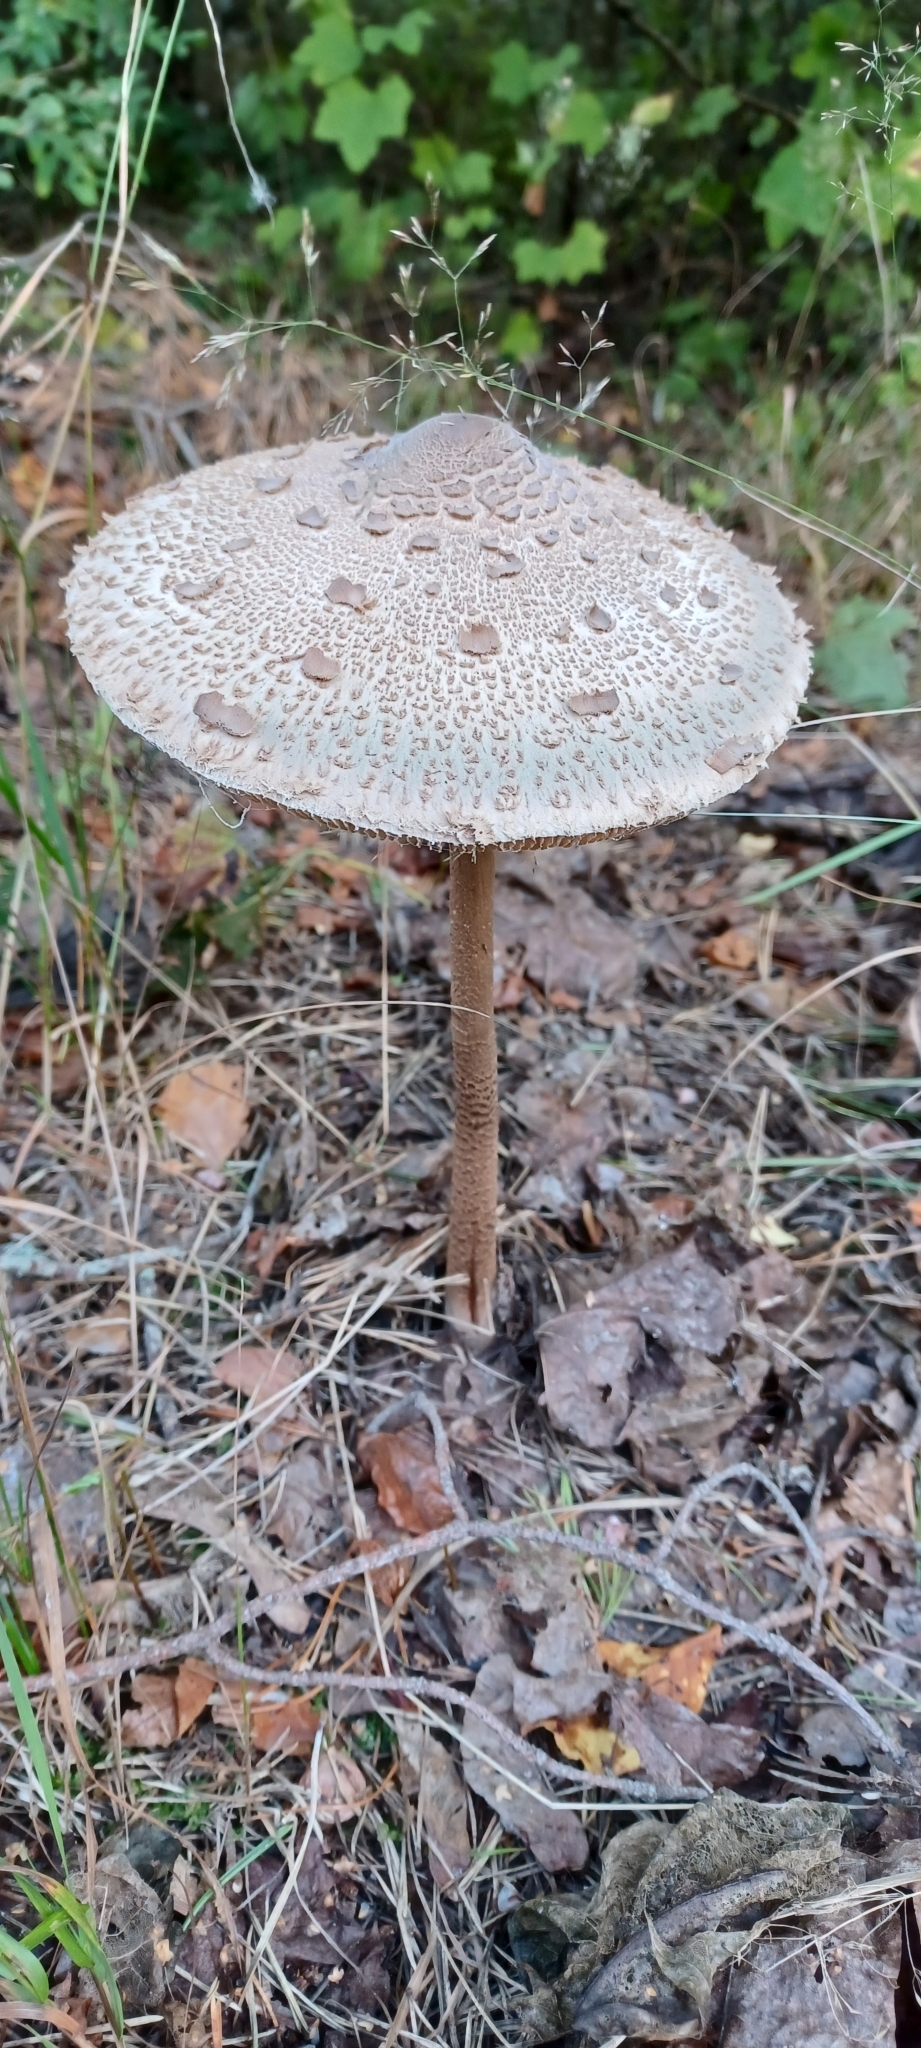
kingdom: Fungi
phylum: Basidiomycota
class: Agaricomycetes
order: Agaricales
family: Agaricaceae
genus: Macrolepiota
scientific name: Macrolepiota procera
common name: Parasol
